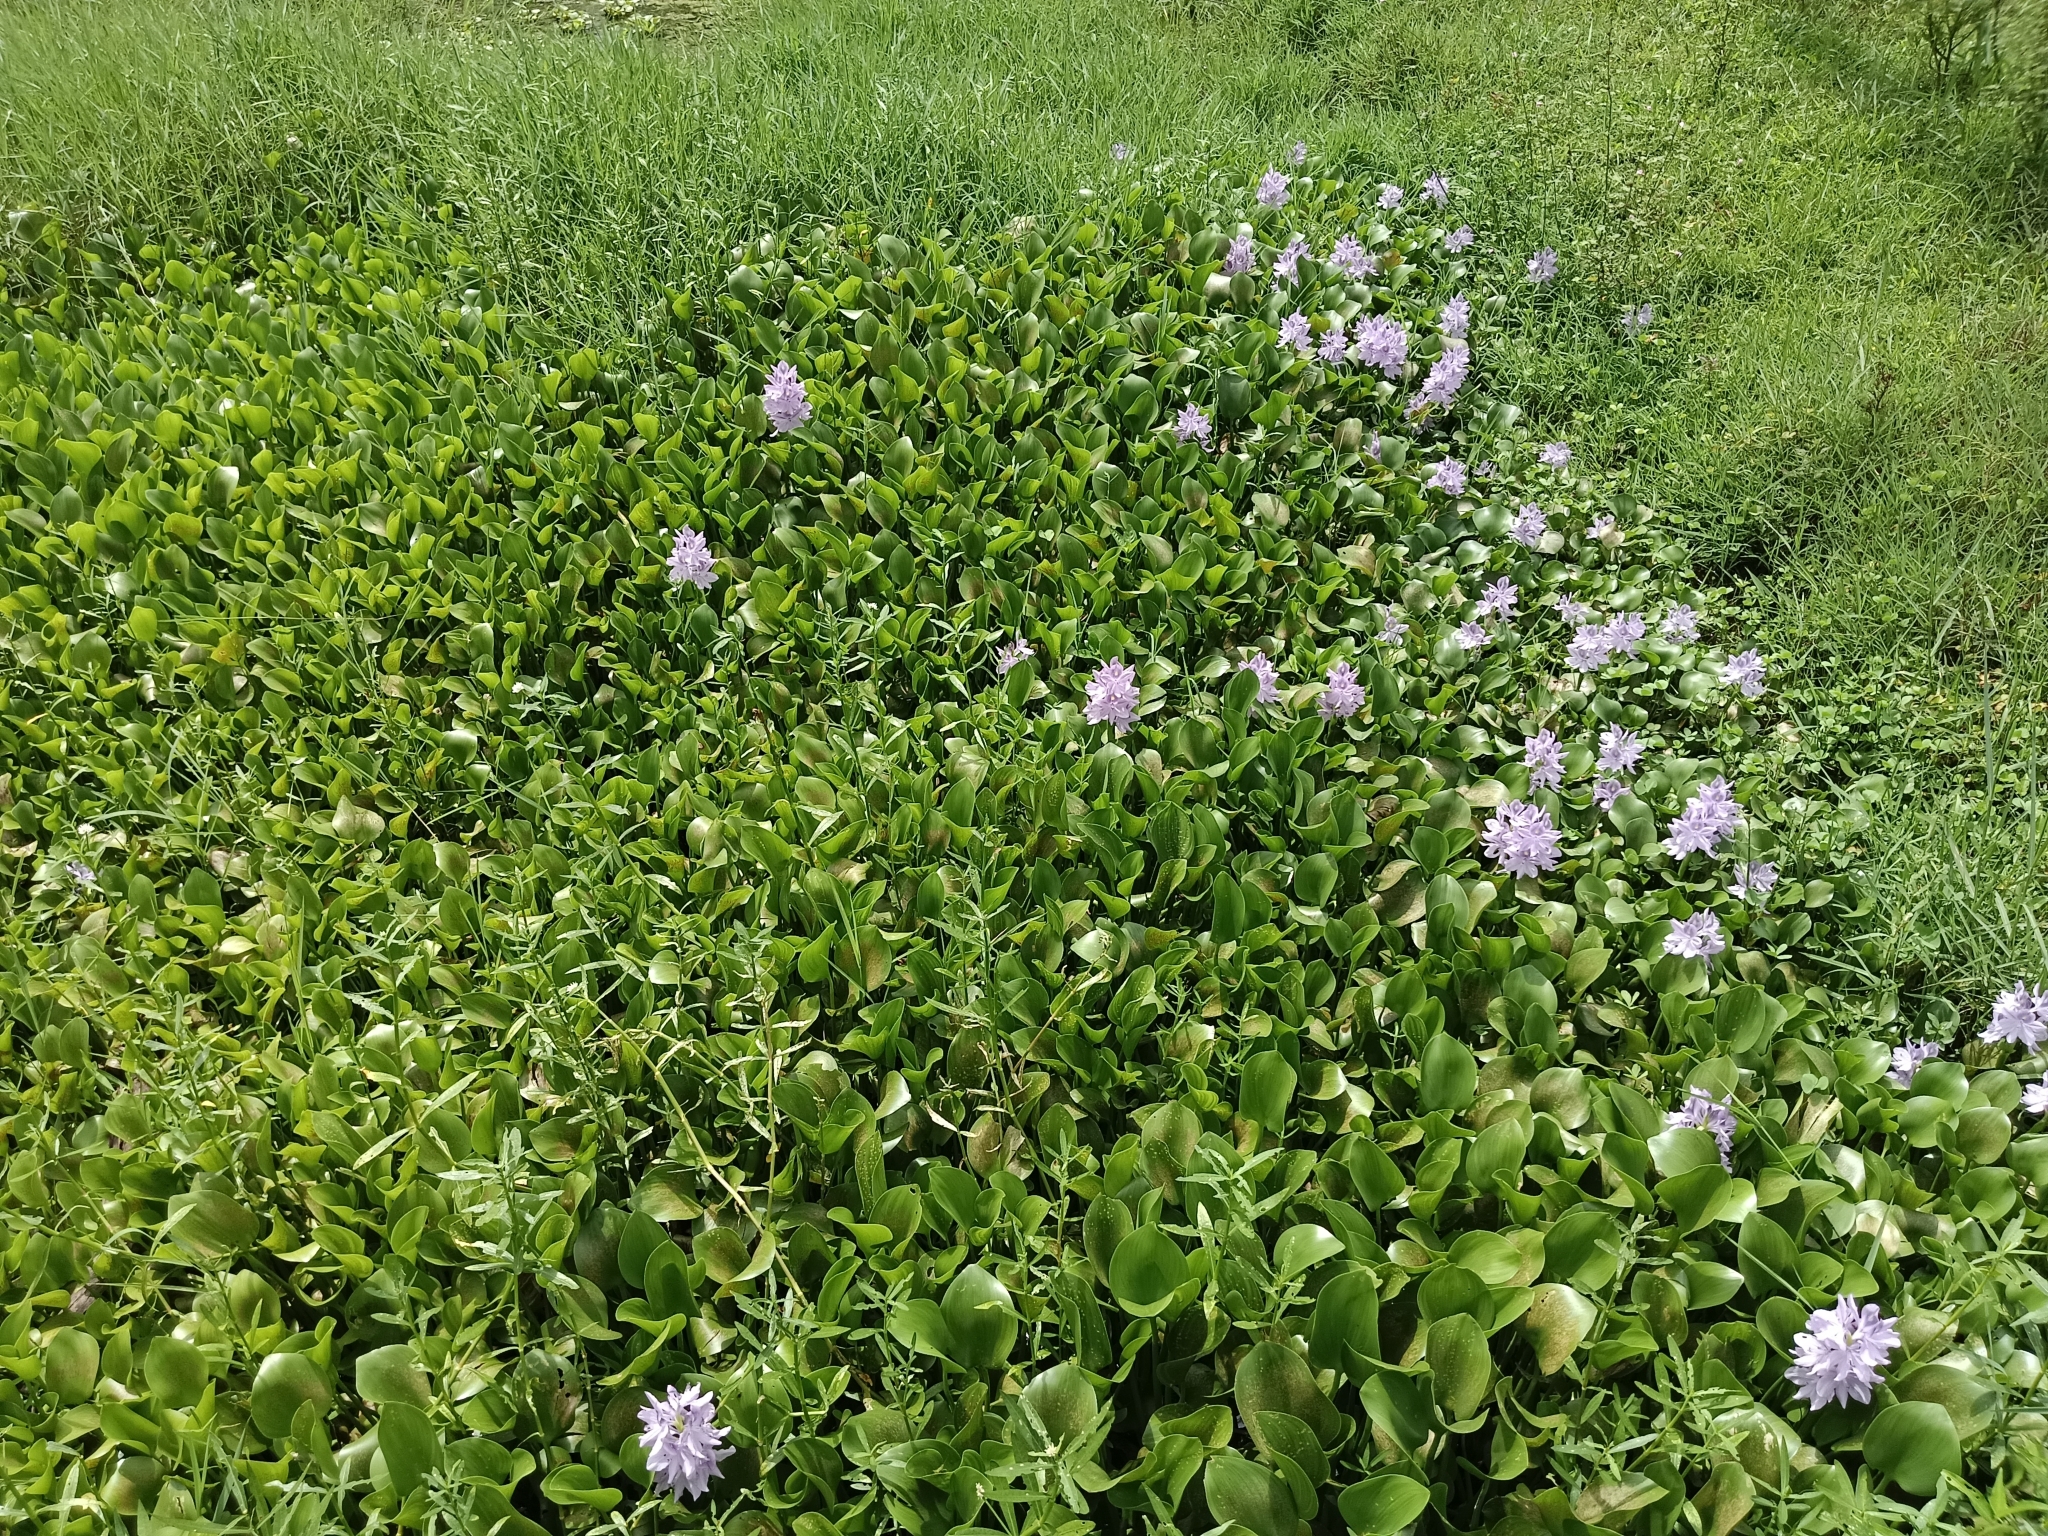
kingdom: Plantae
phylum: Tracheophyta
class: Liliopsida
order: Commelinales
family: Pontederiaceae
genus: Pontederia
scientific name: Pontederia crassipes
